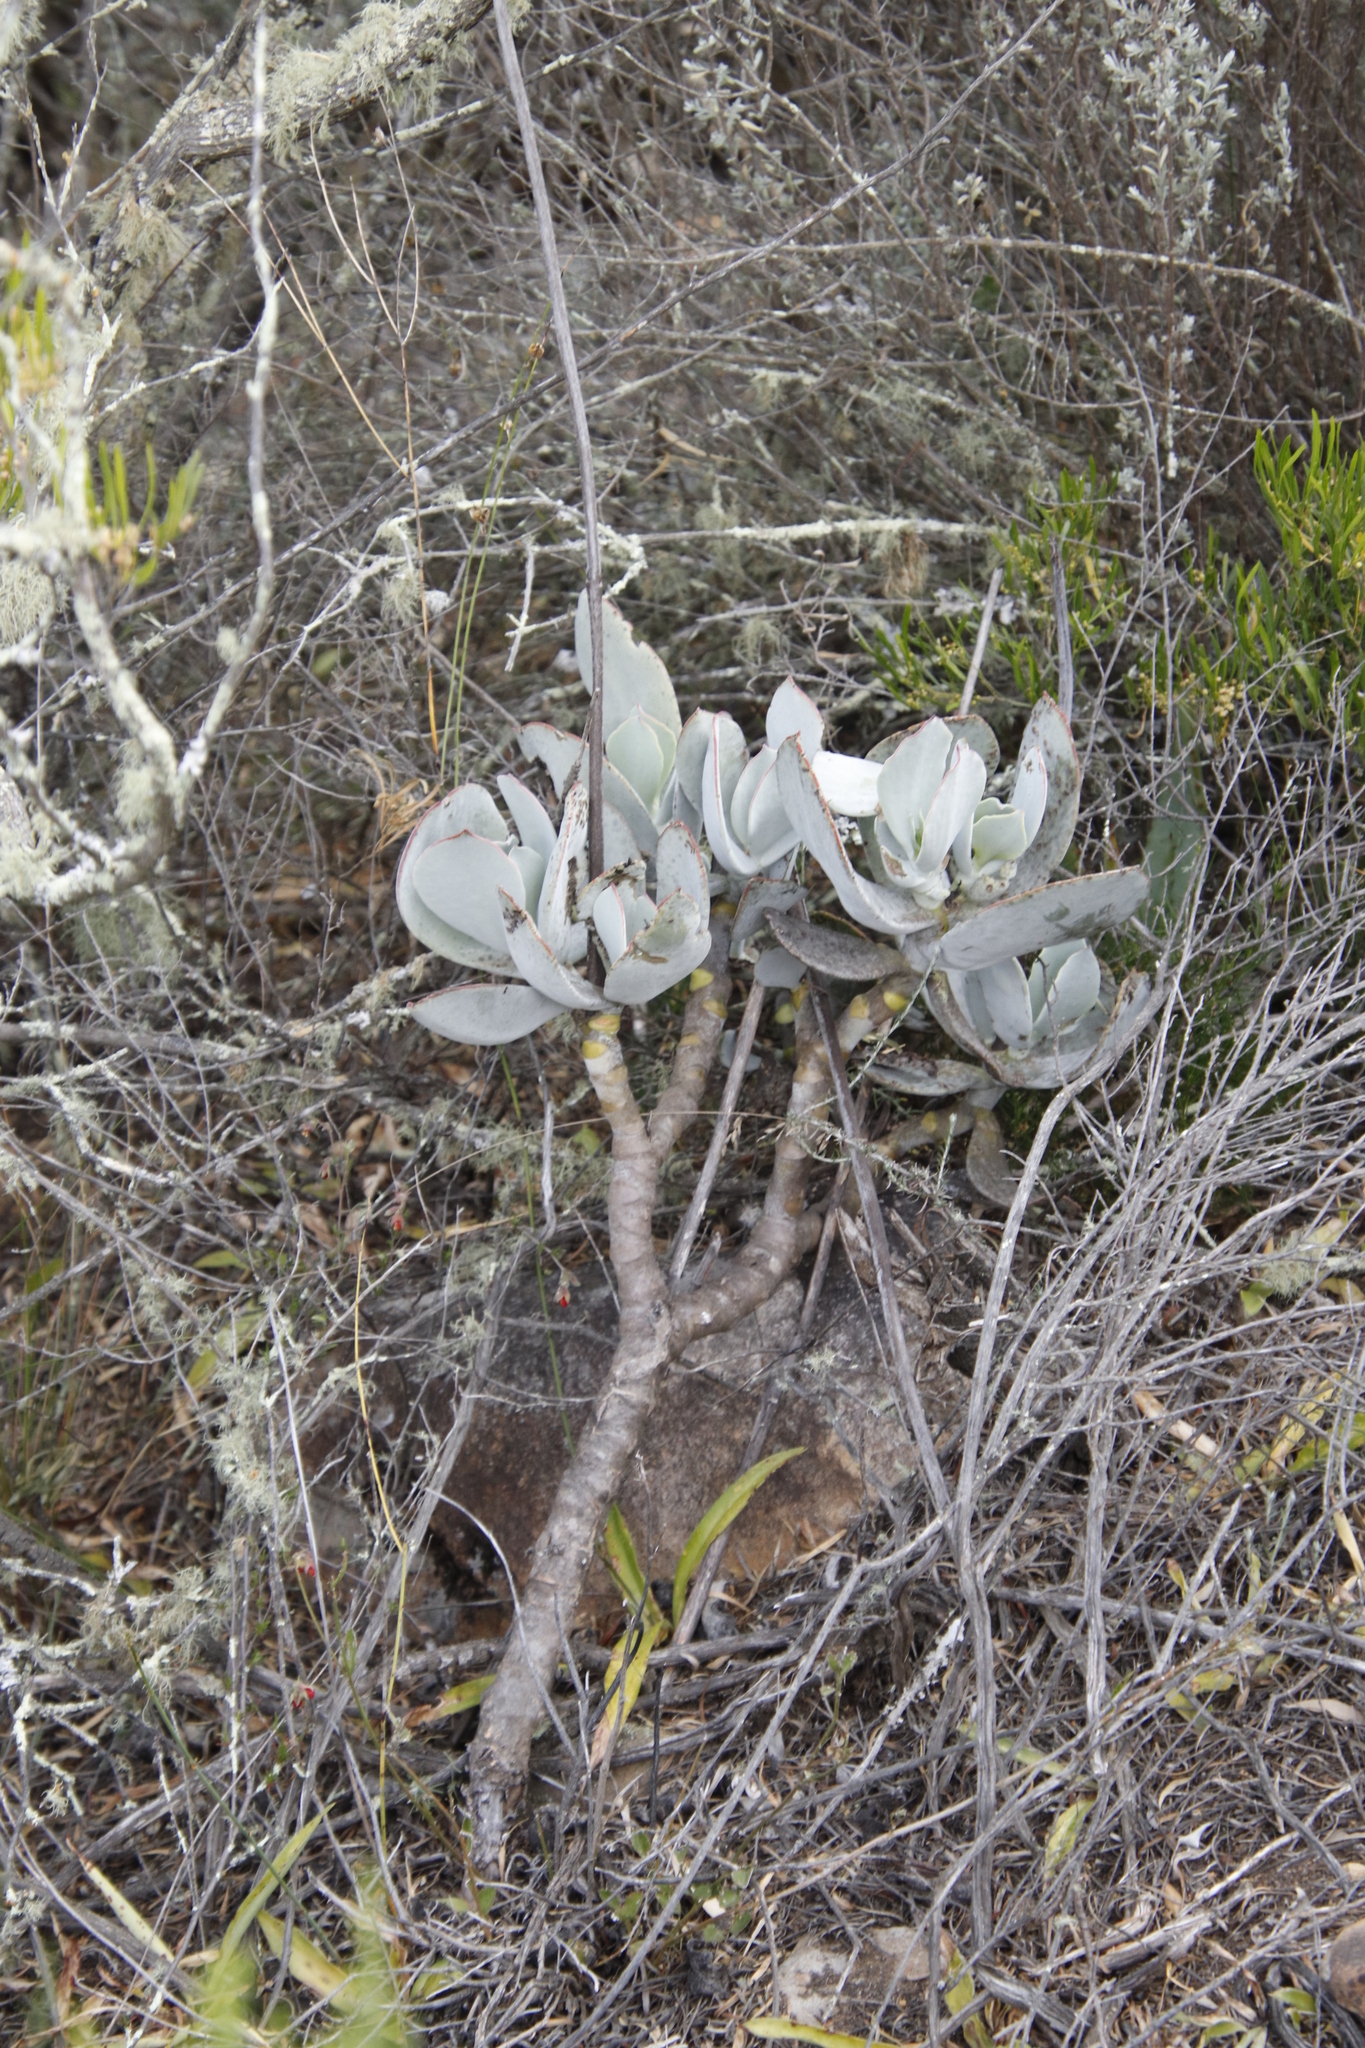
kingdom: Plantae
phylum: Tracheophyta
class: Magnoliopsida
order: Saxifragales
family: Crassulaceae
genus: Cotyledon
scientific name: Cotyledon orbiculata
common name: Pig's ear
